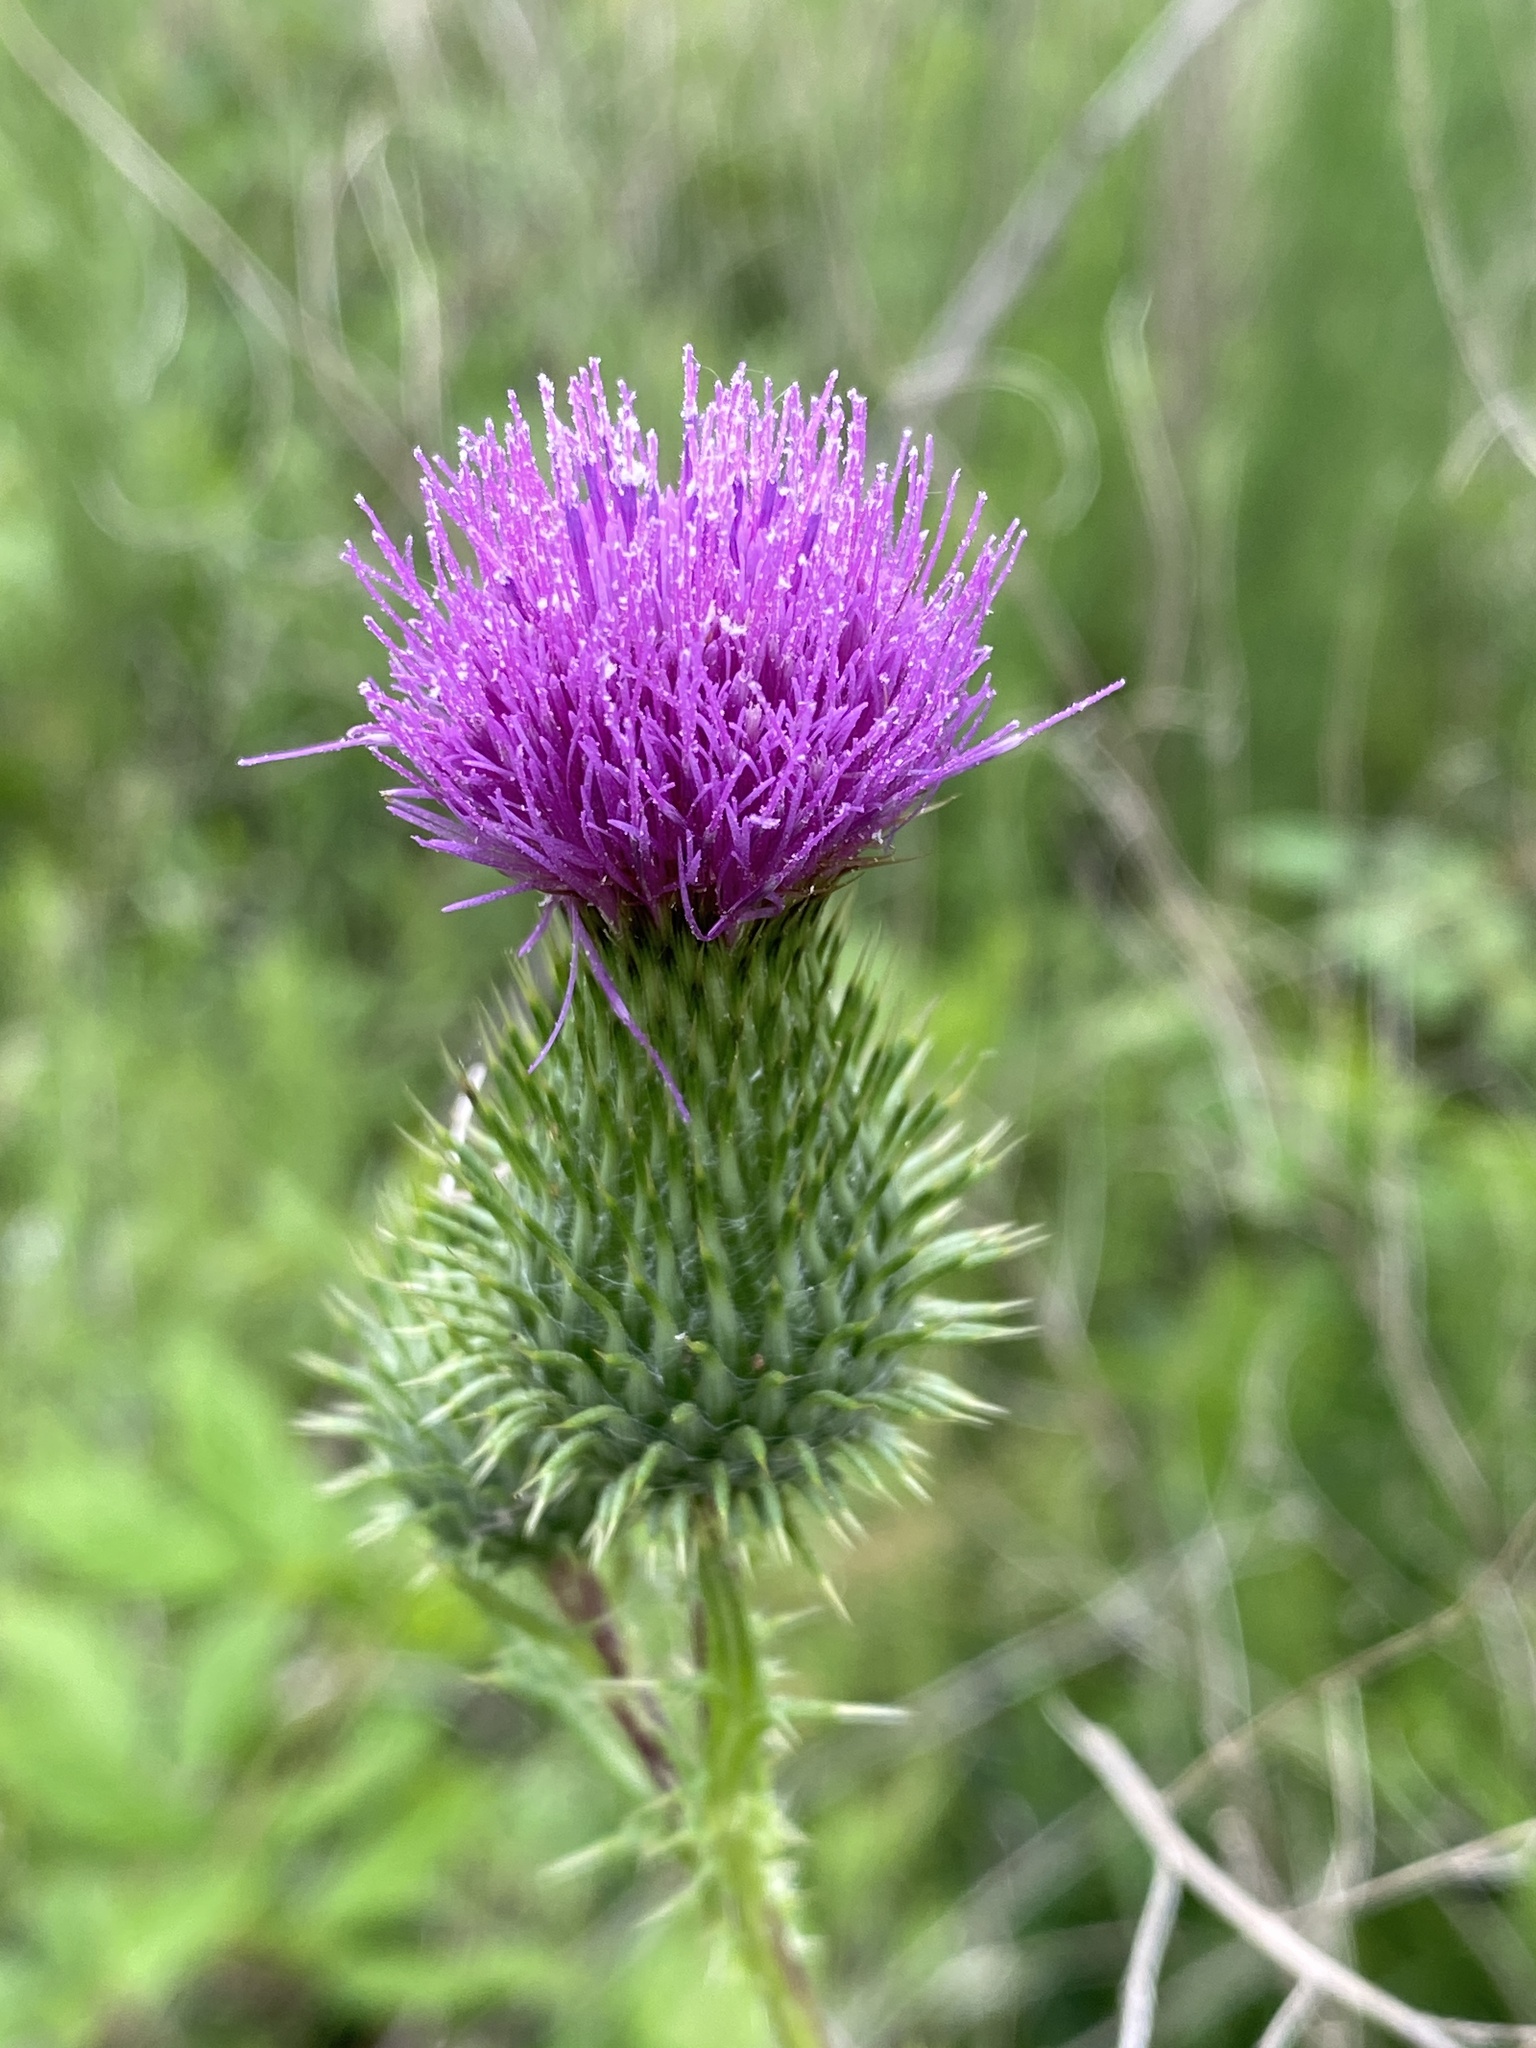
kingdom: Plantae
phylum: Tracheophyta
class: Magnoliopsida
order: Asterales
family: Asteraceae
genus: Cirsium
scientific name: Cirsium vulgare
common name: Bull thistle
